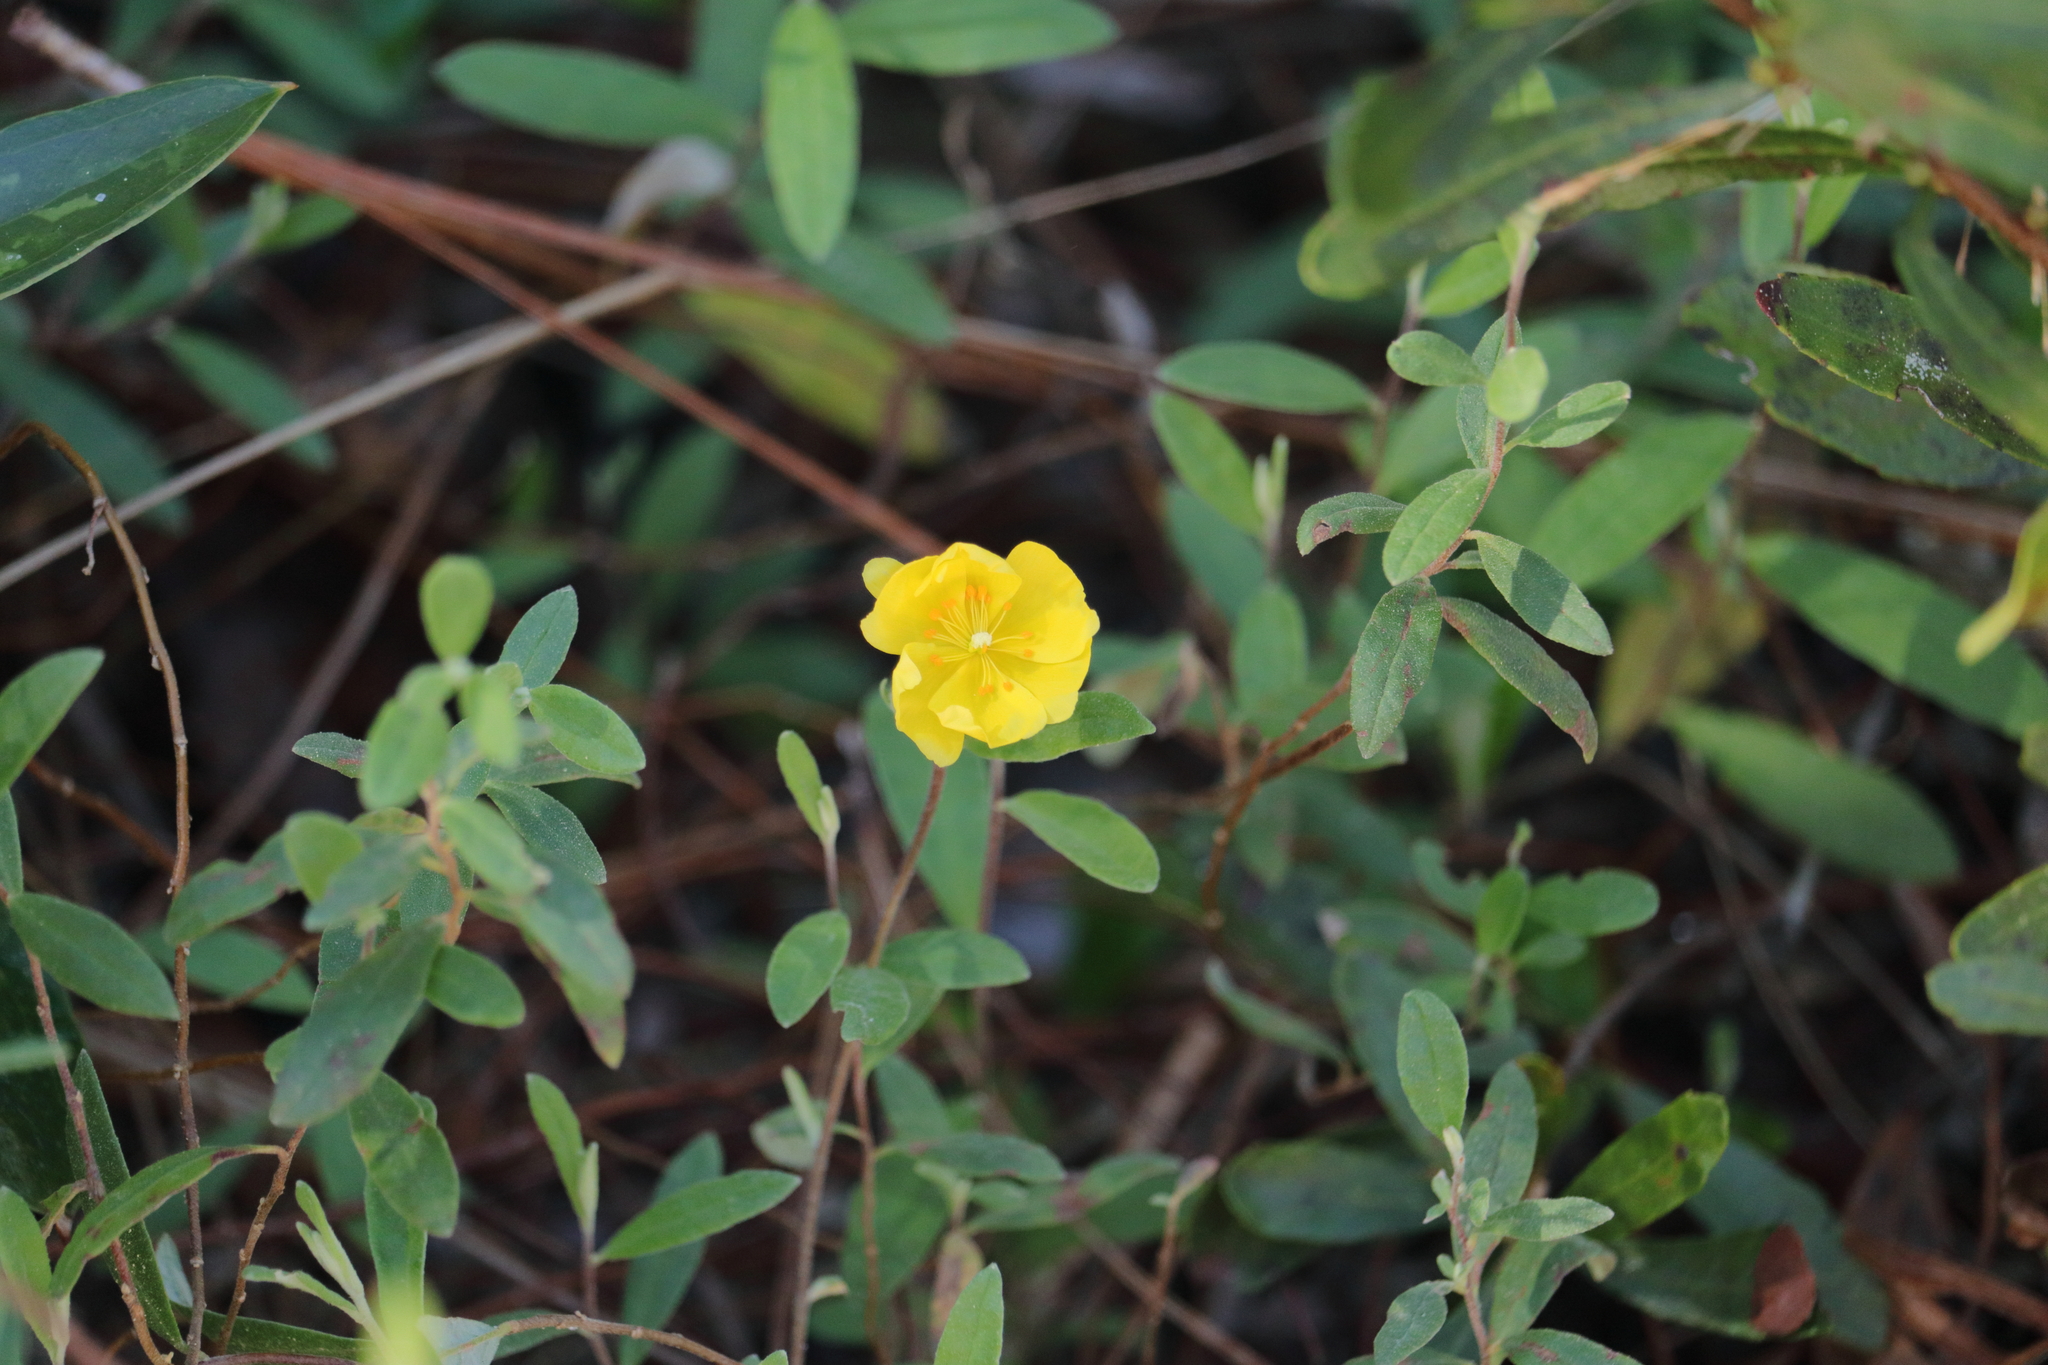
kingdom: Plantae
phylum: Tracheophyta
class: Magnoliopsida
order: Malvales
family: Cistaceae
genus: Crocanthemum
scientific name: Crocanthemum corymbosum
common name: Pinebarren sun-rose
